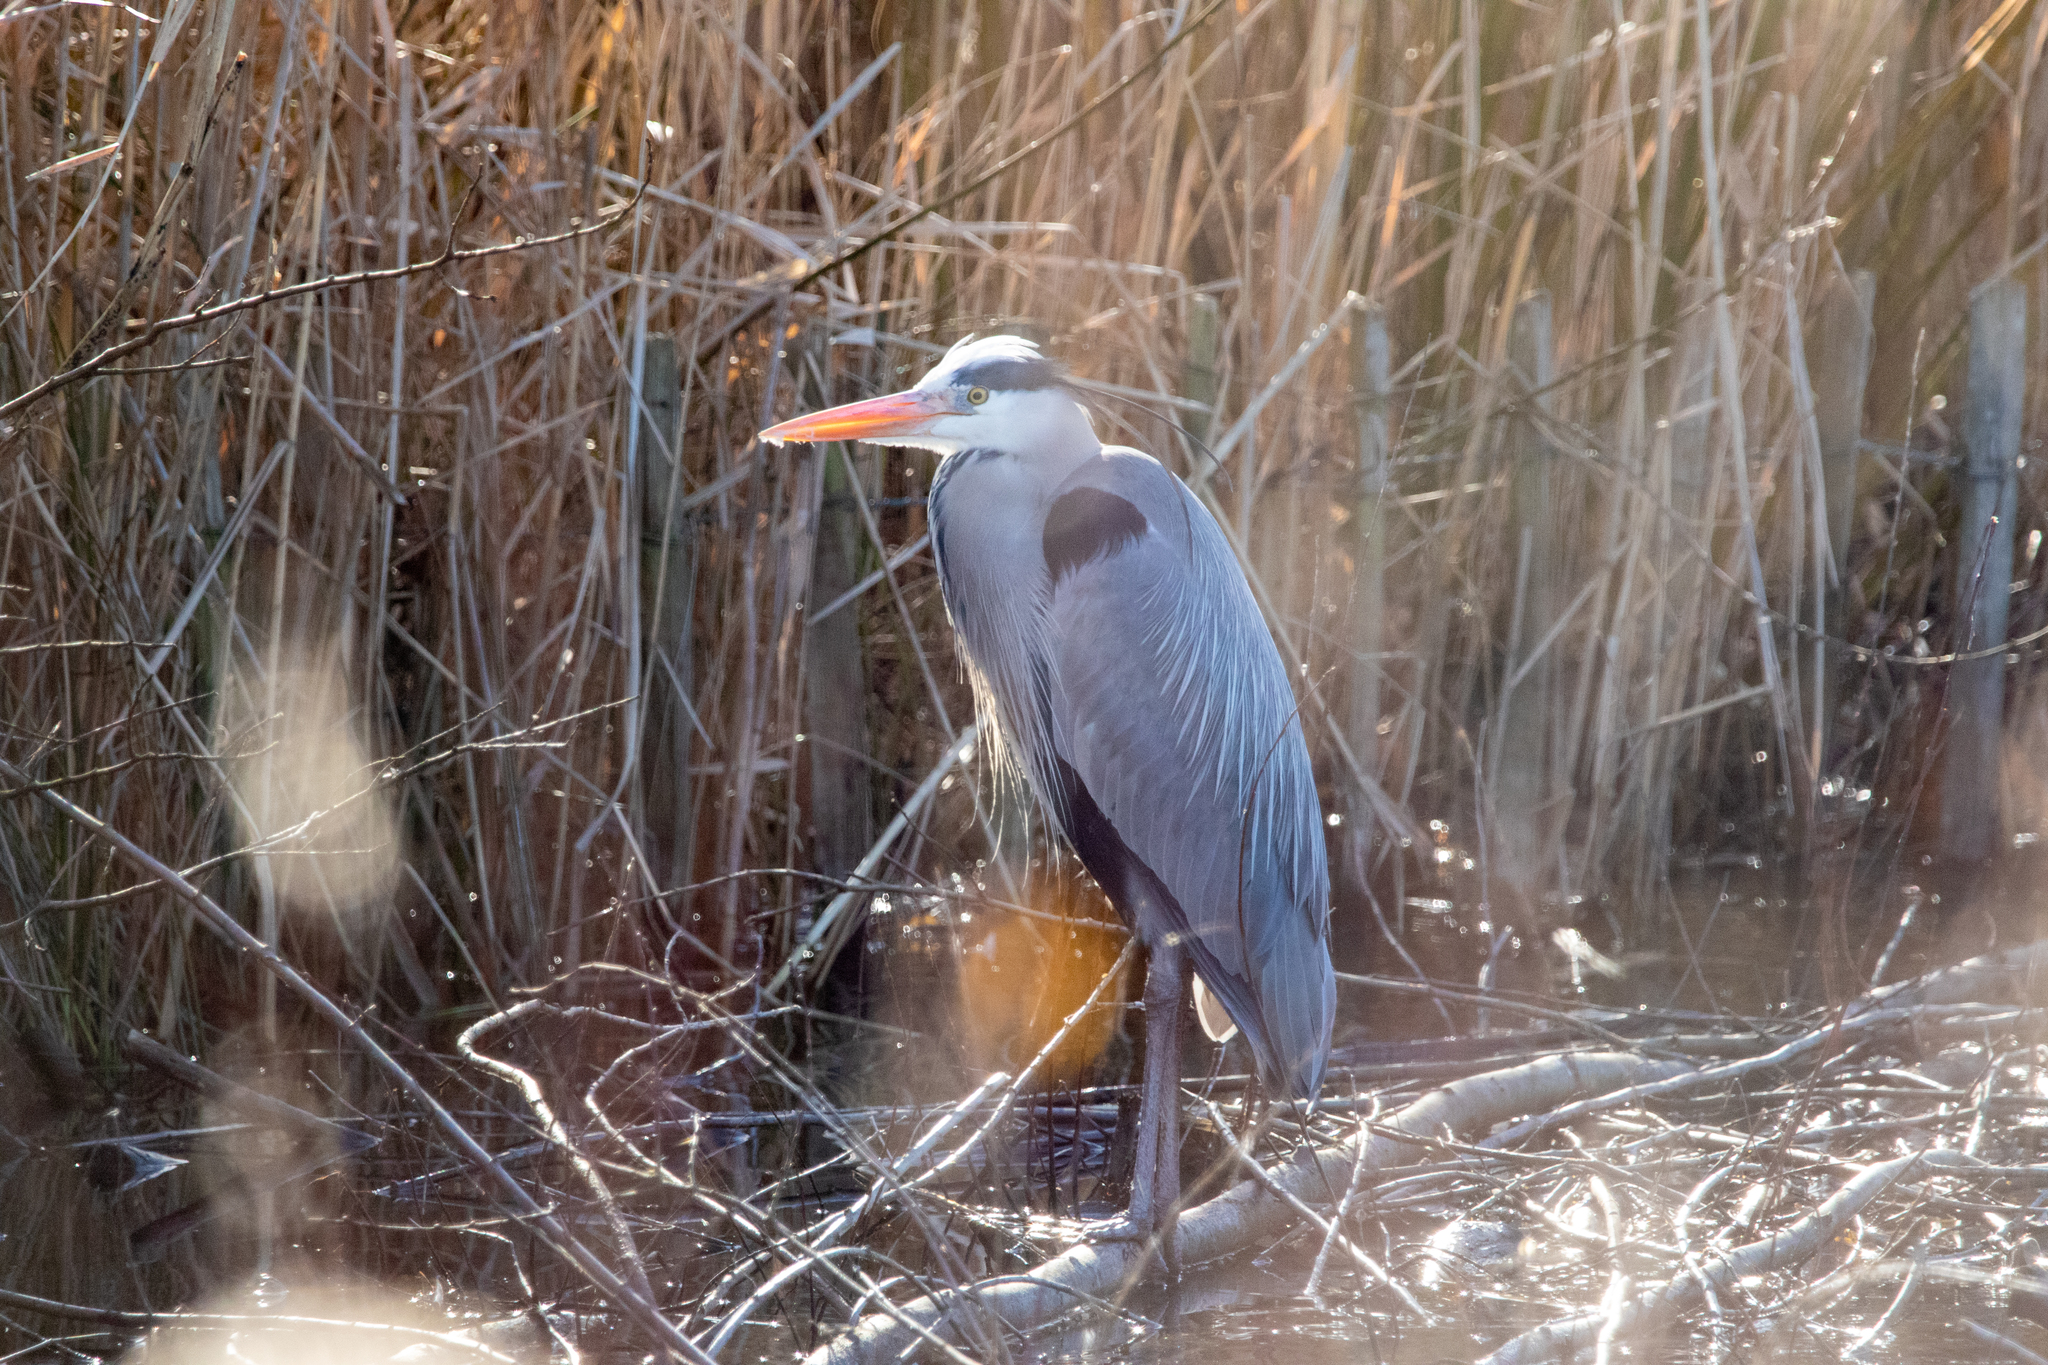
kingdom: Animalia
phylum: Chordata
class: Aves
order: Pelecaniformes
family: Ardeidae
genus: Ardea
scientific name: Ardea cinerea
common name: Grey heron
